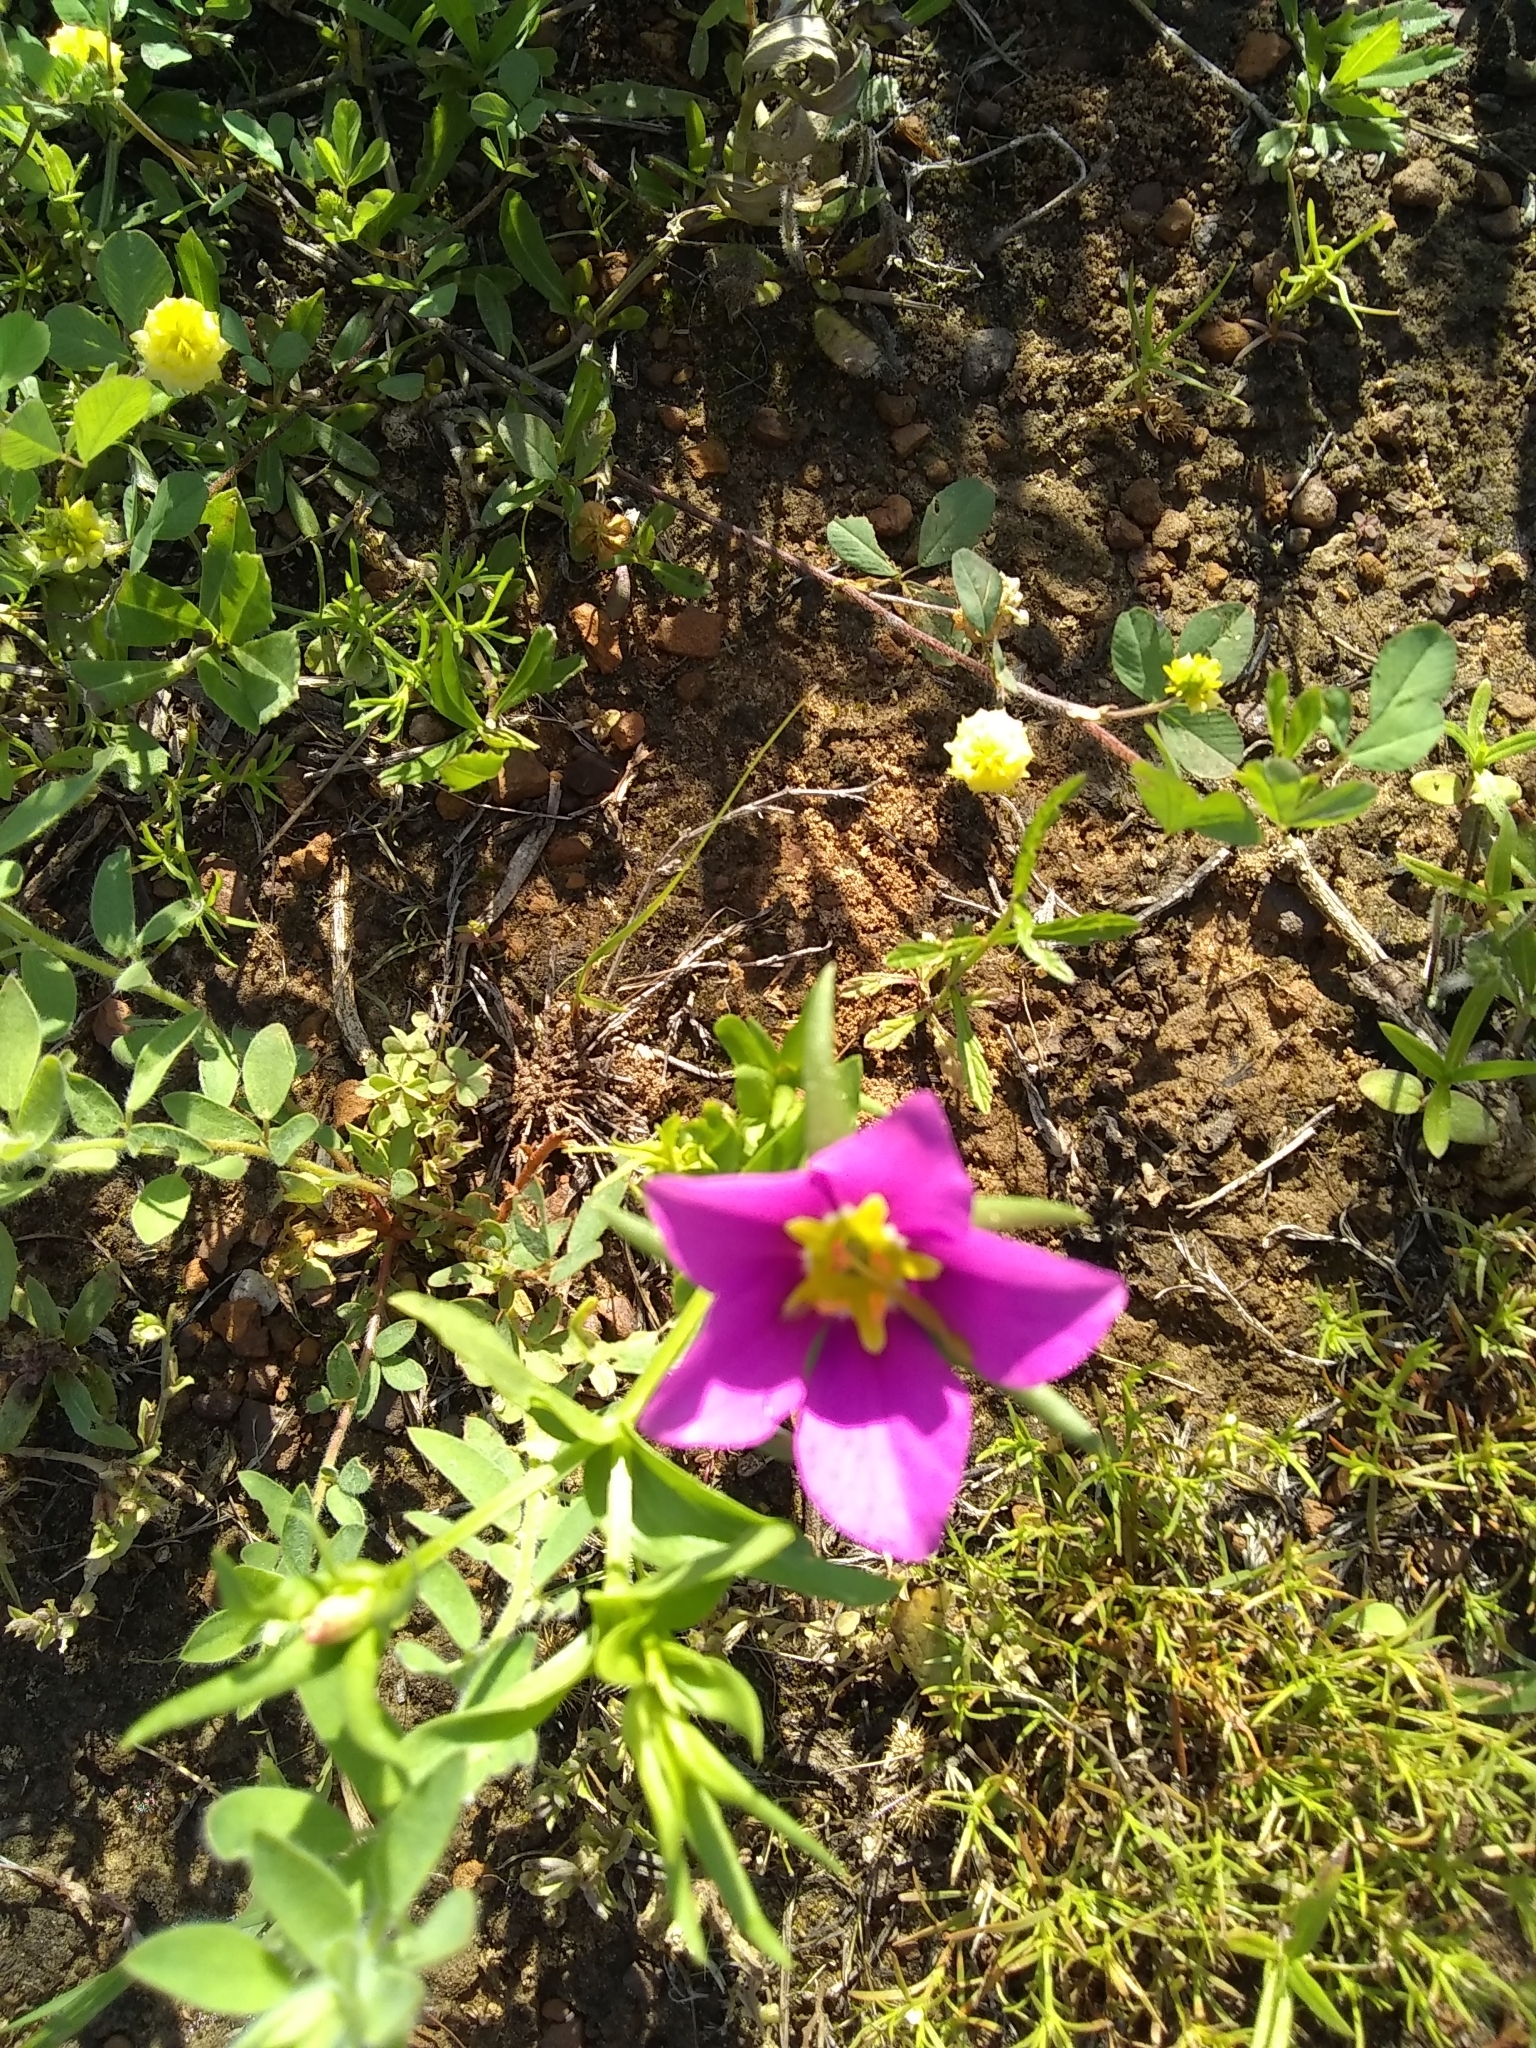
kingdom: Plantae
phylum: Tracheophyta
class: Magnoliopsida
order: Gentianales
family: Gentianaceae
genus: Sabatia
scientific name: Sabatia campestris
